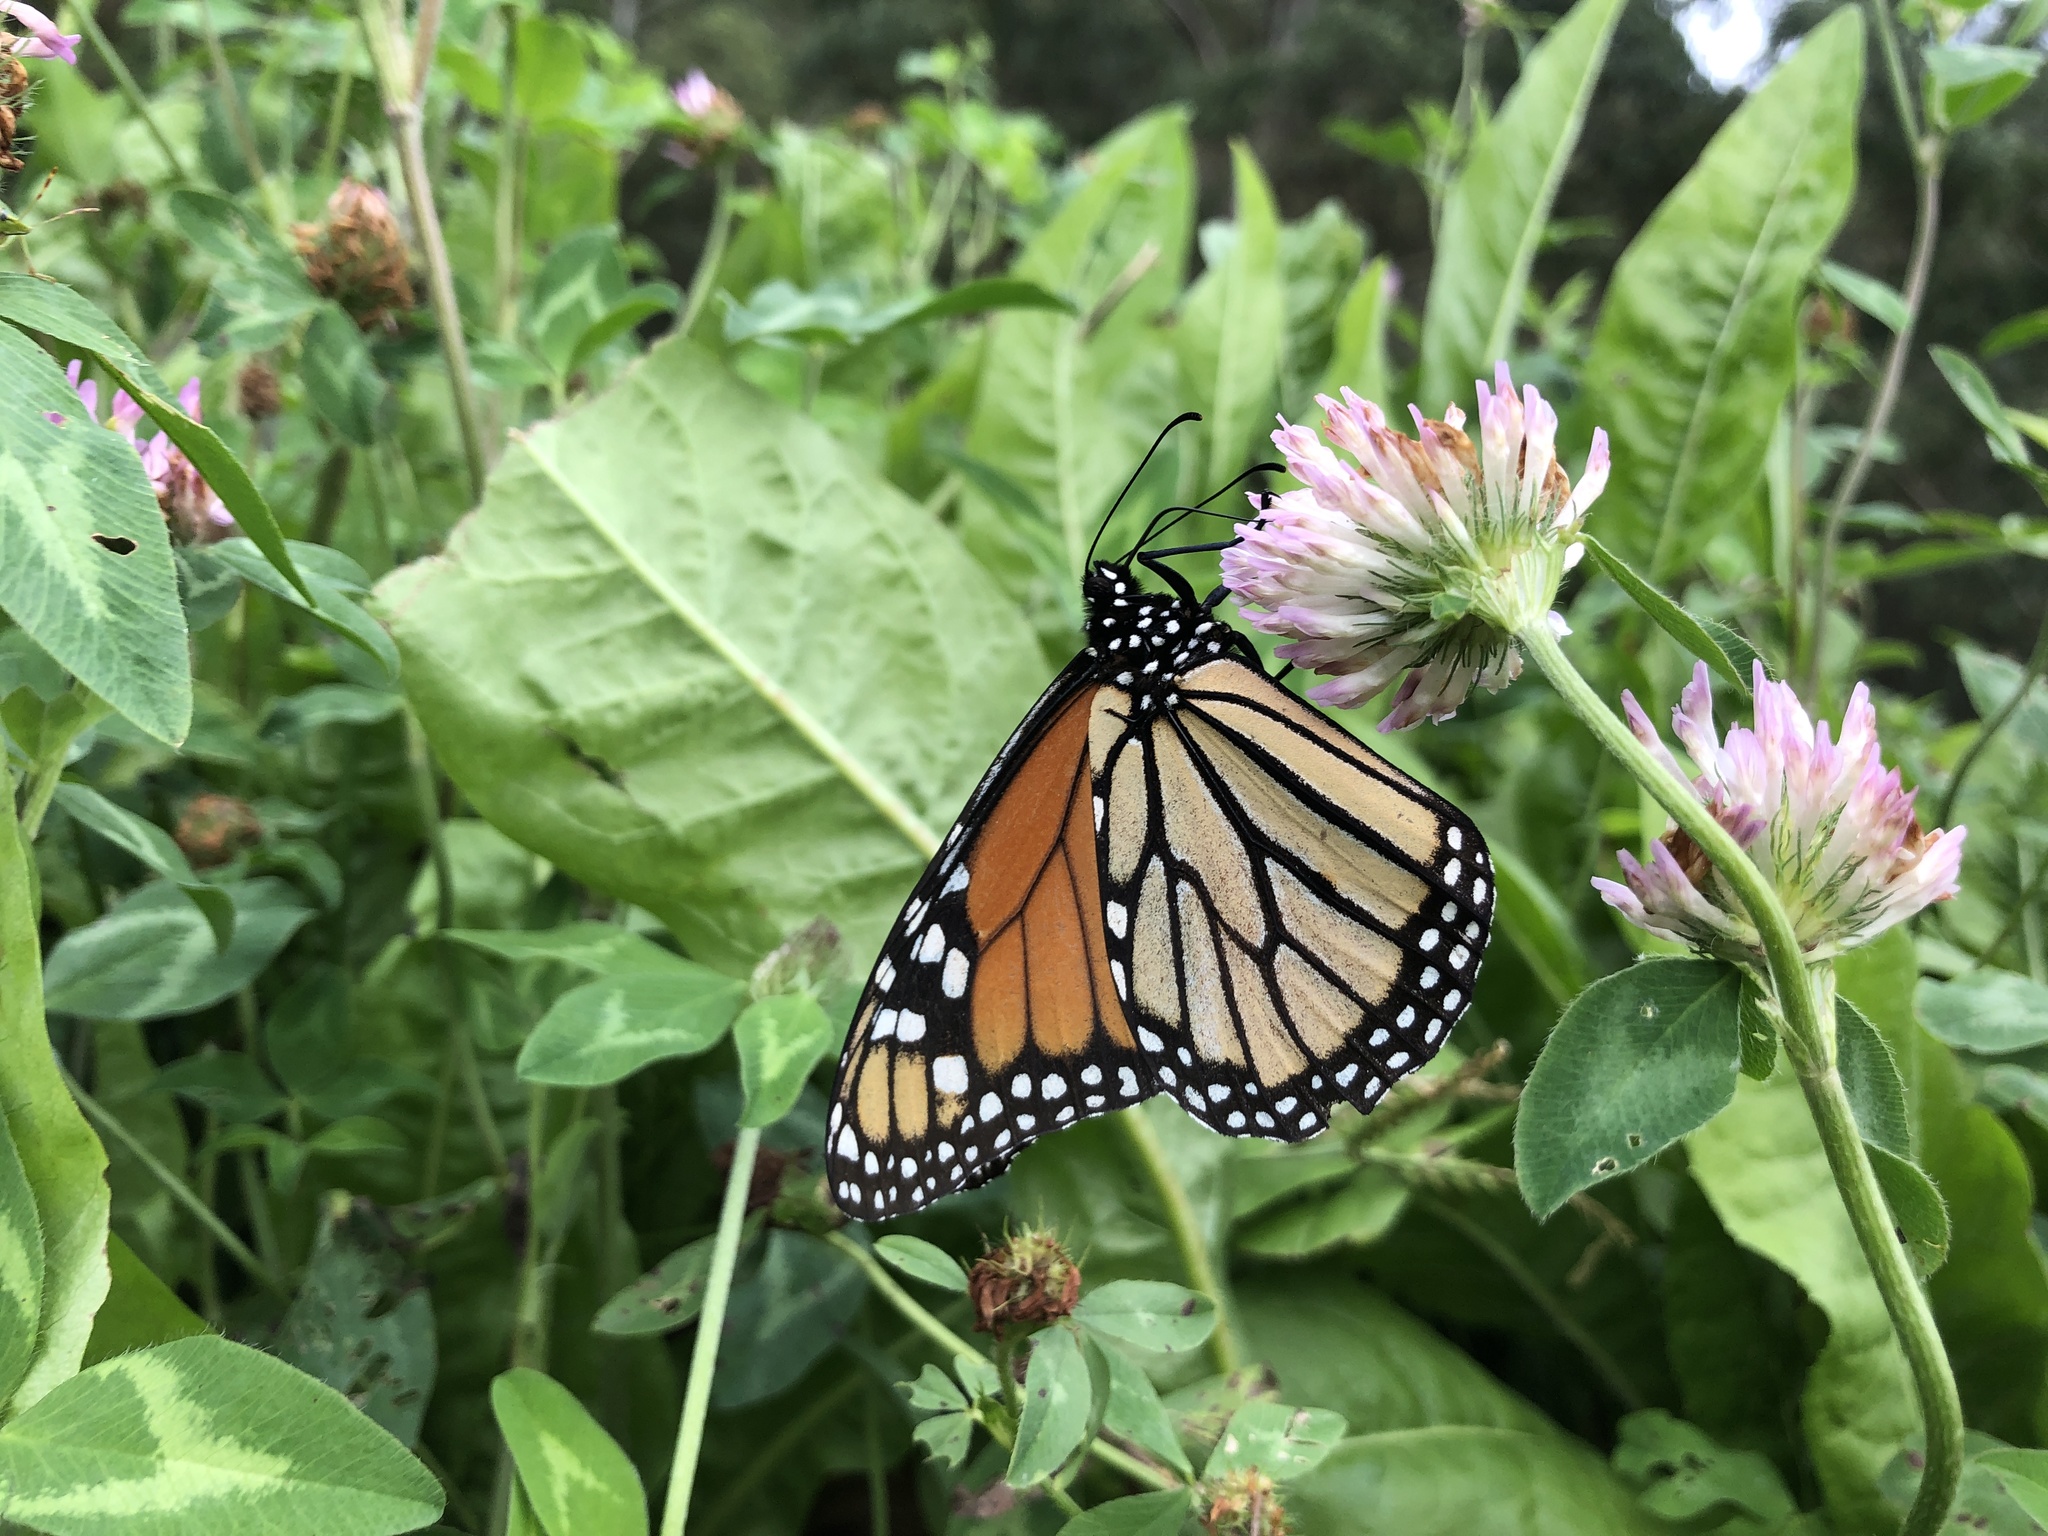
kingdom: Animalia
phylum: Arthropoda
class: Insecta
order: Lepidoptera
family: Nymphalidae
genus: Danaus
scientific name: Danaus plexippus
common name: Monarch
